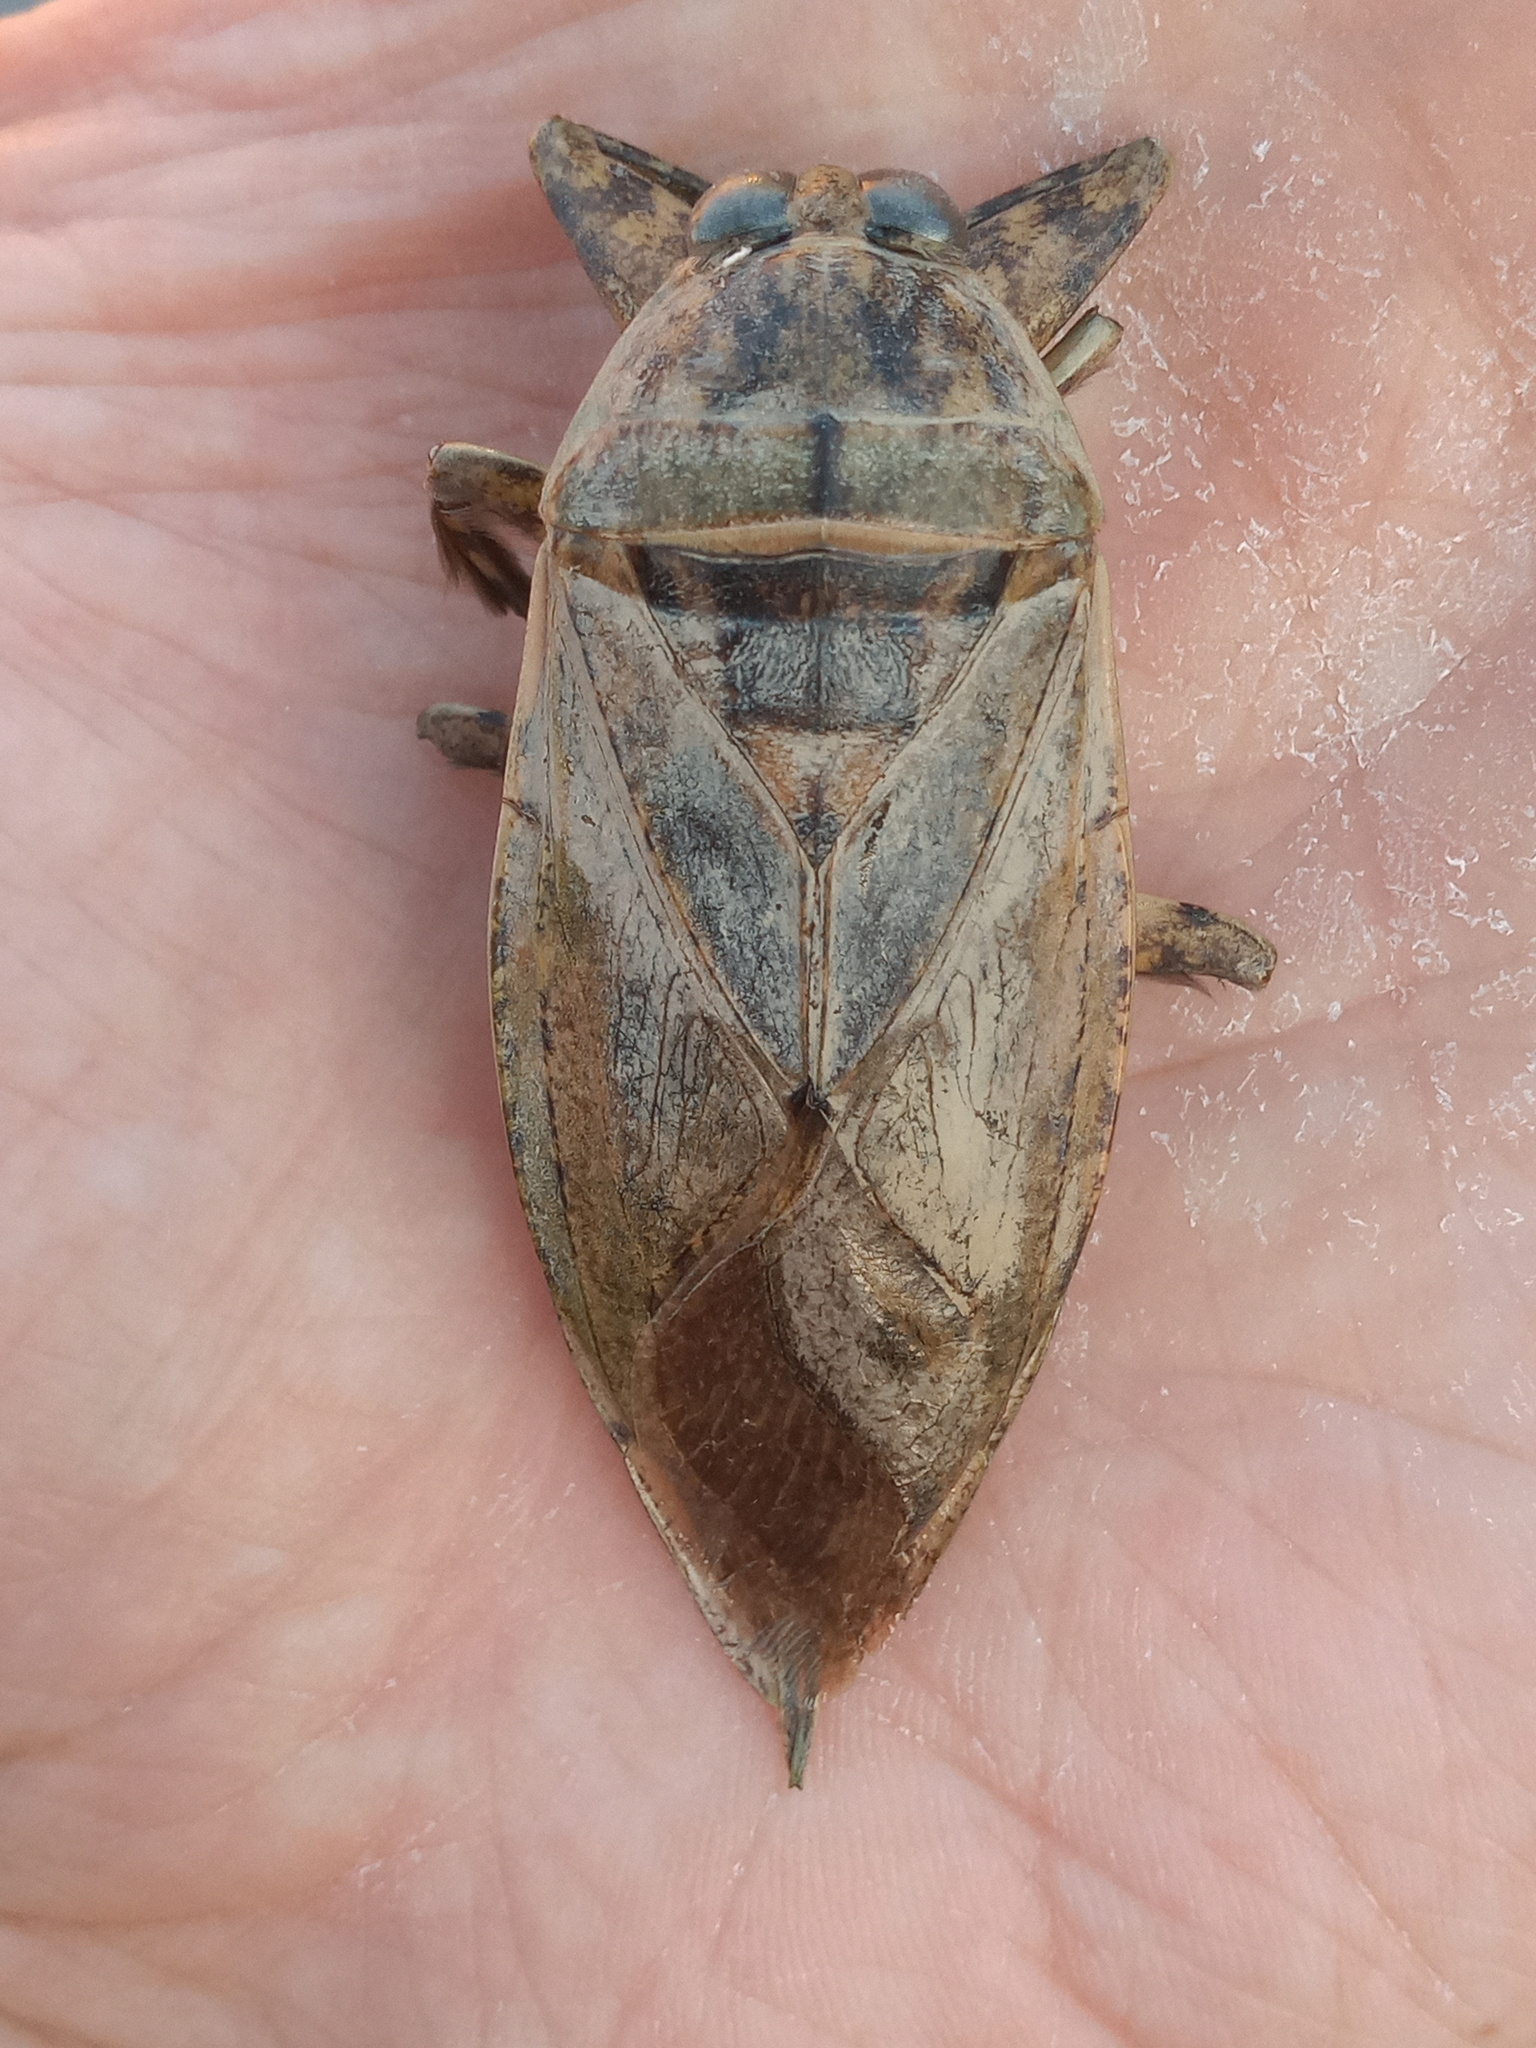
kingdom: Animalia
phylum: Arthropoda
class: Insecta
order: Hemiptera
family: Belostomatidae
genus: Lethocerus
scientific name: Lethocerus medius
